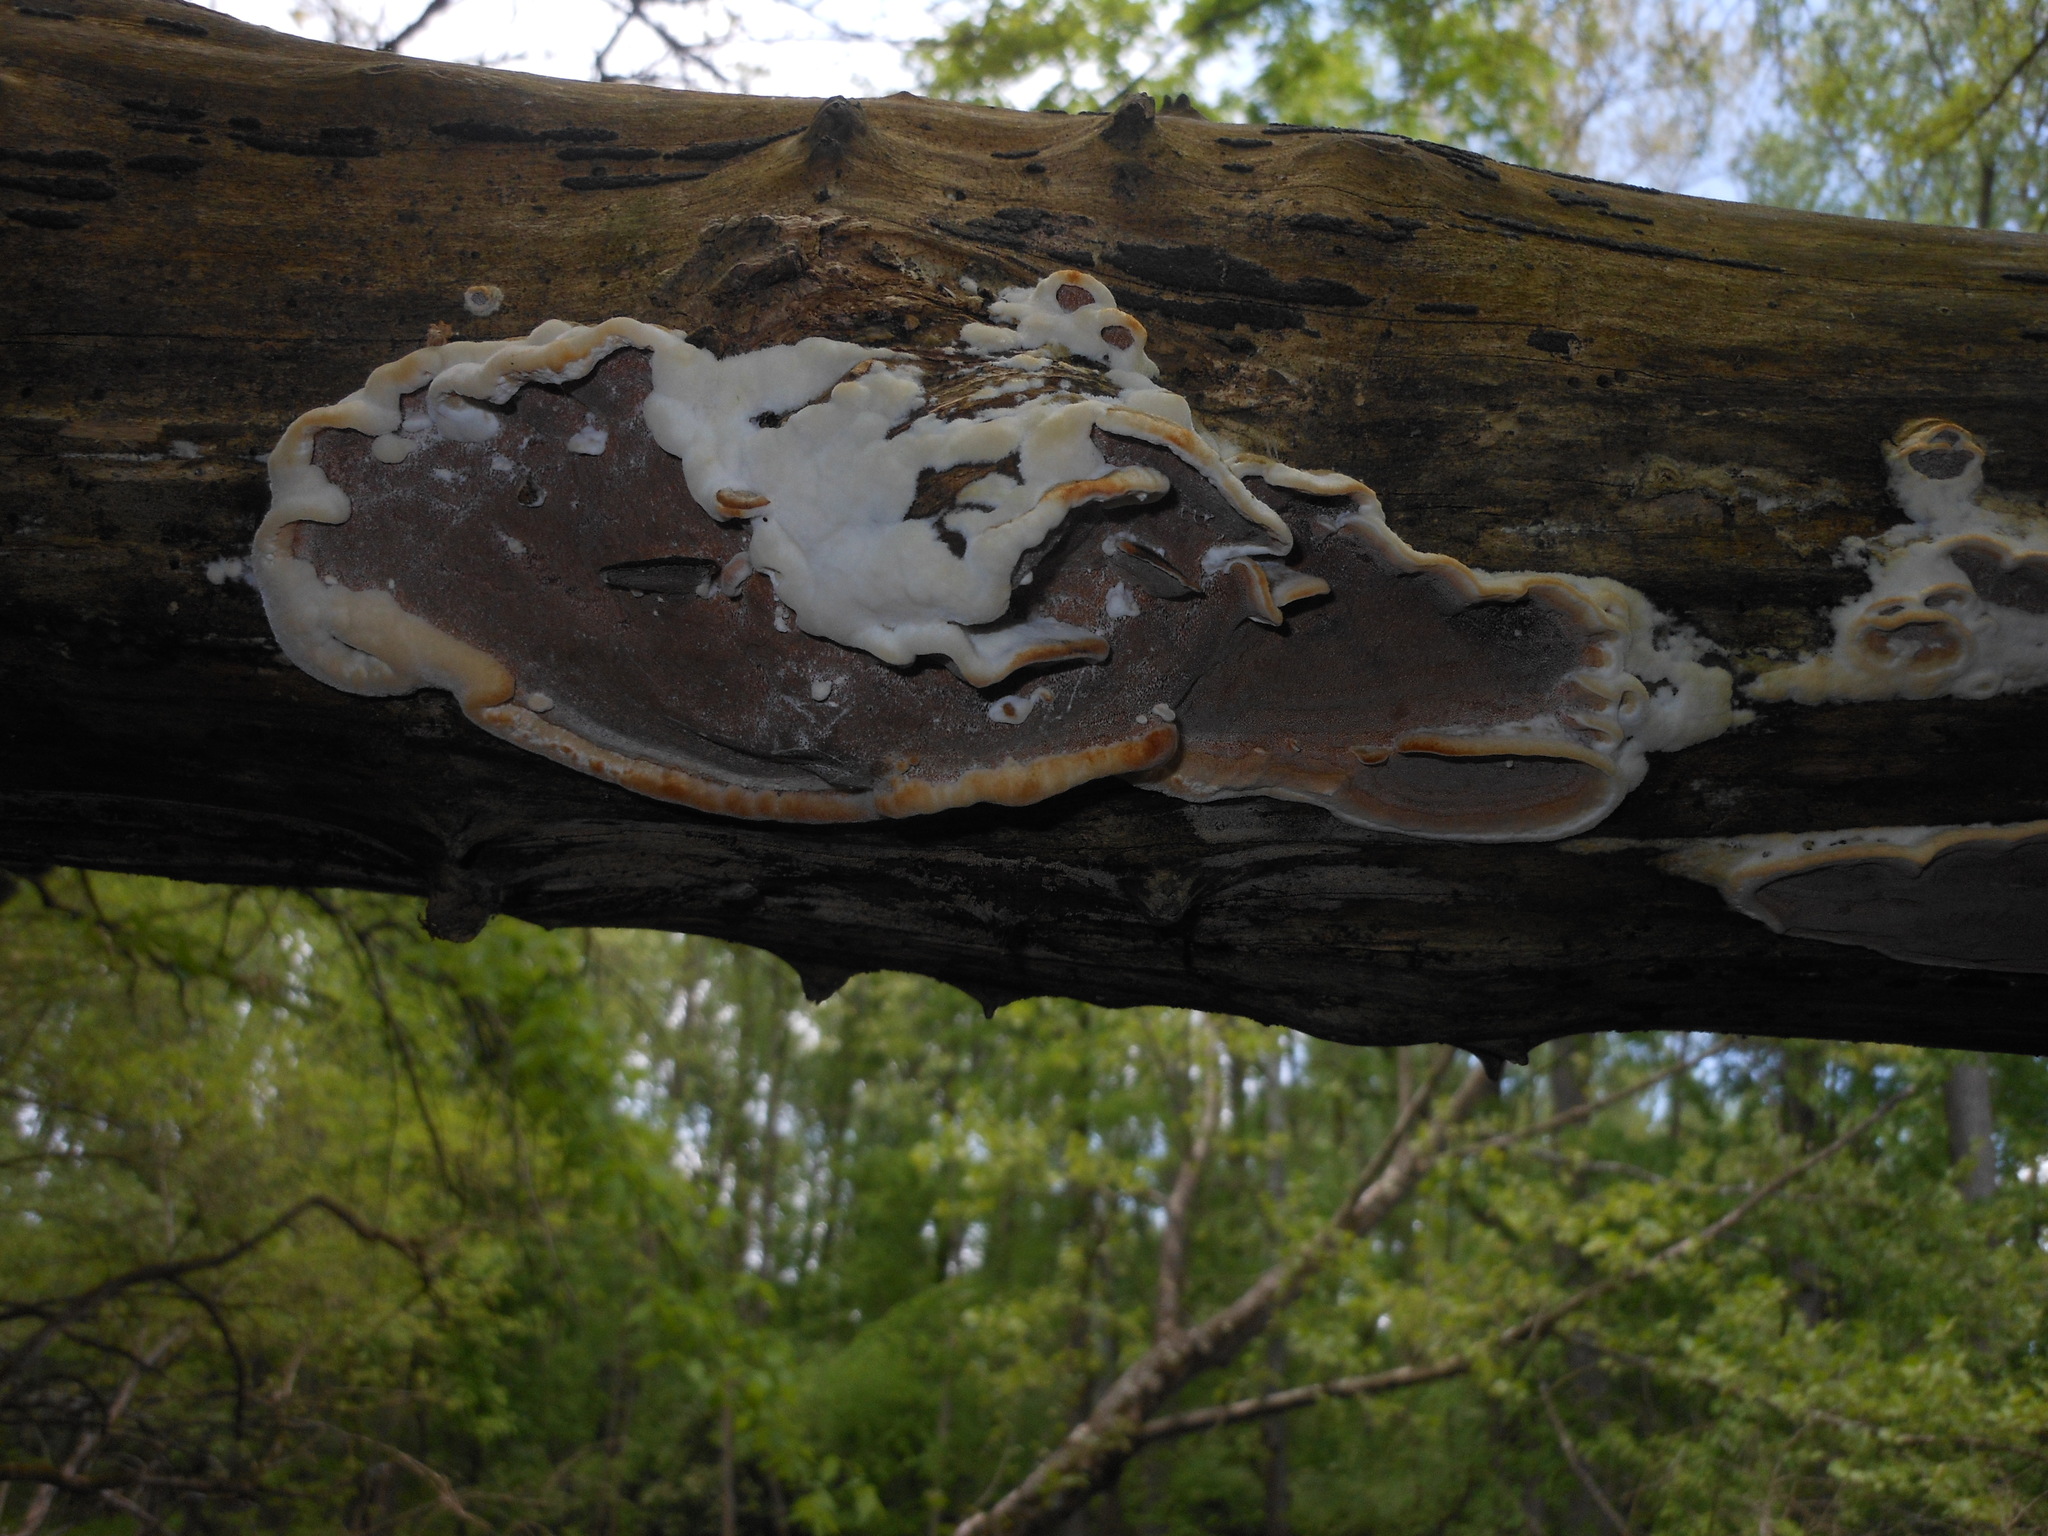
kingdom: Fungi
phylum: Basidiomycota
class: Agaricomycetes
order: Polyporales
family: Phanerochaetaceae
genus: Bjerkandera
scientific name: Bjerkandera adusta
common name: Smoky bracket
